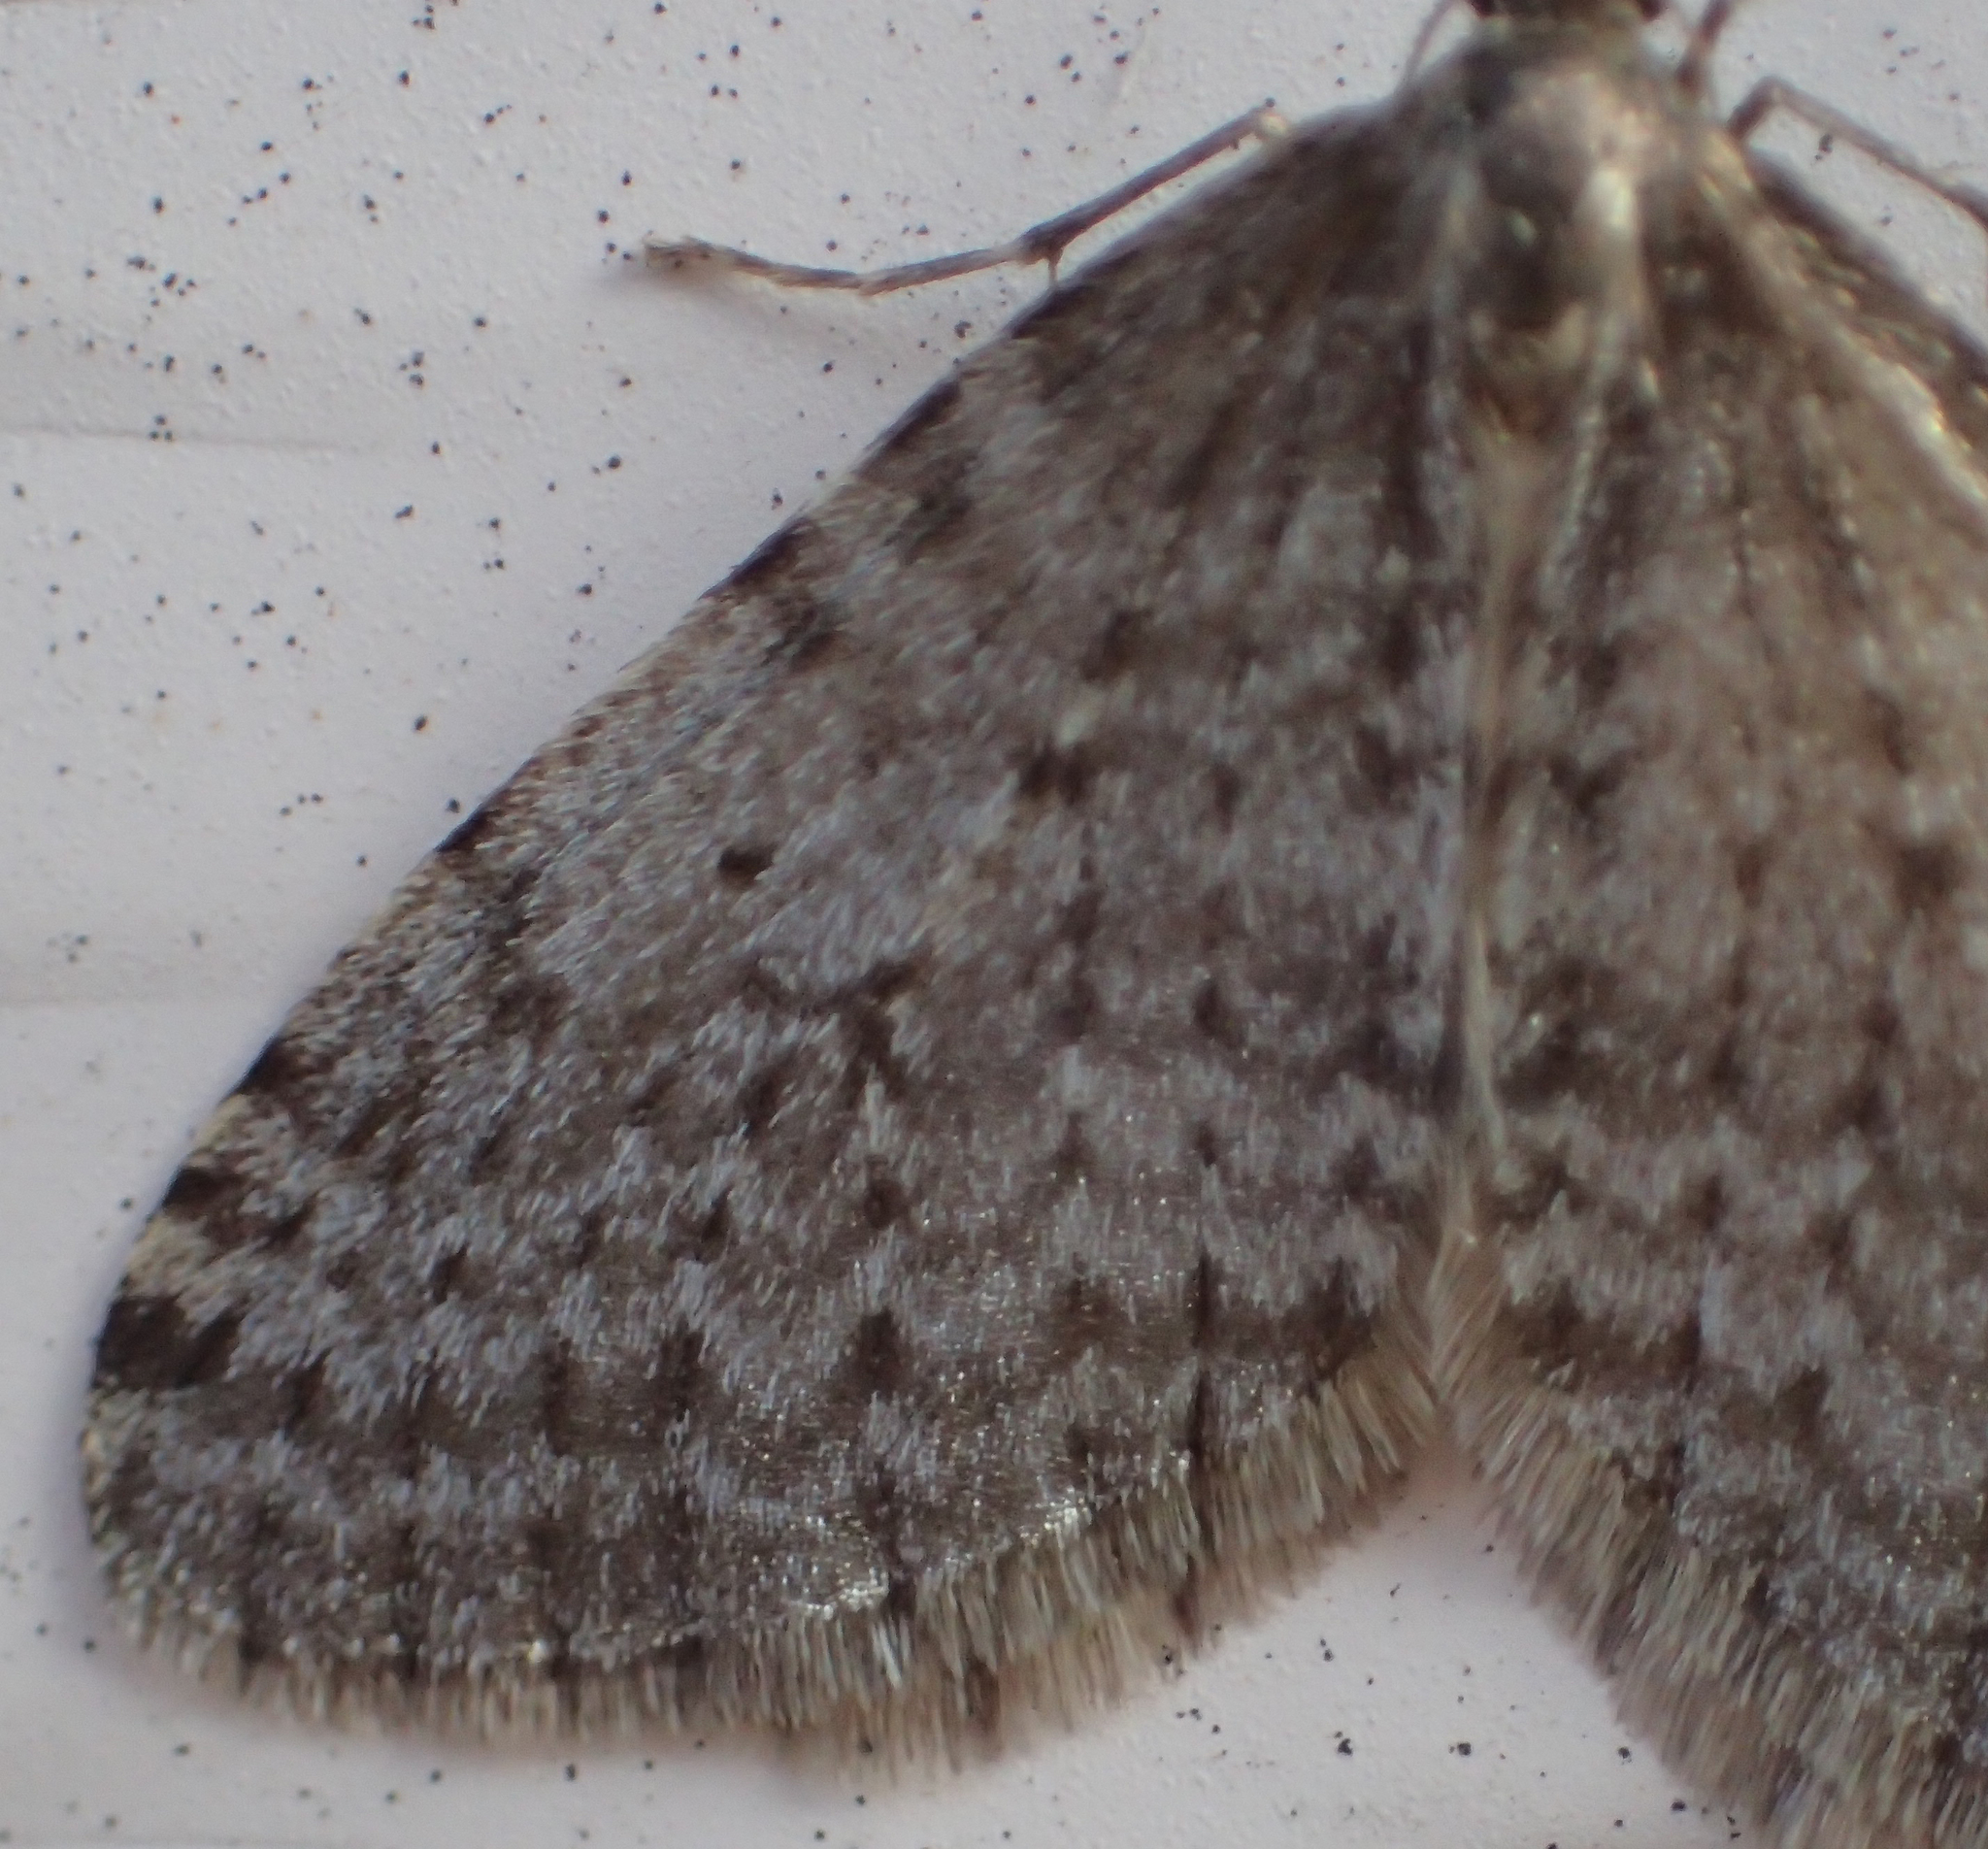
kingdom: Animalia
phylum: Arthropoda
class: Insecta
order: Lepidoptera
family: Geometridae
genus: Operophtera
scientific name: Operophtera bruceata
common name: Bruce spanworm
